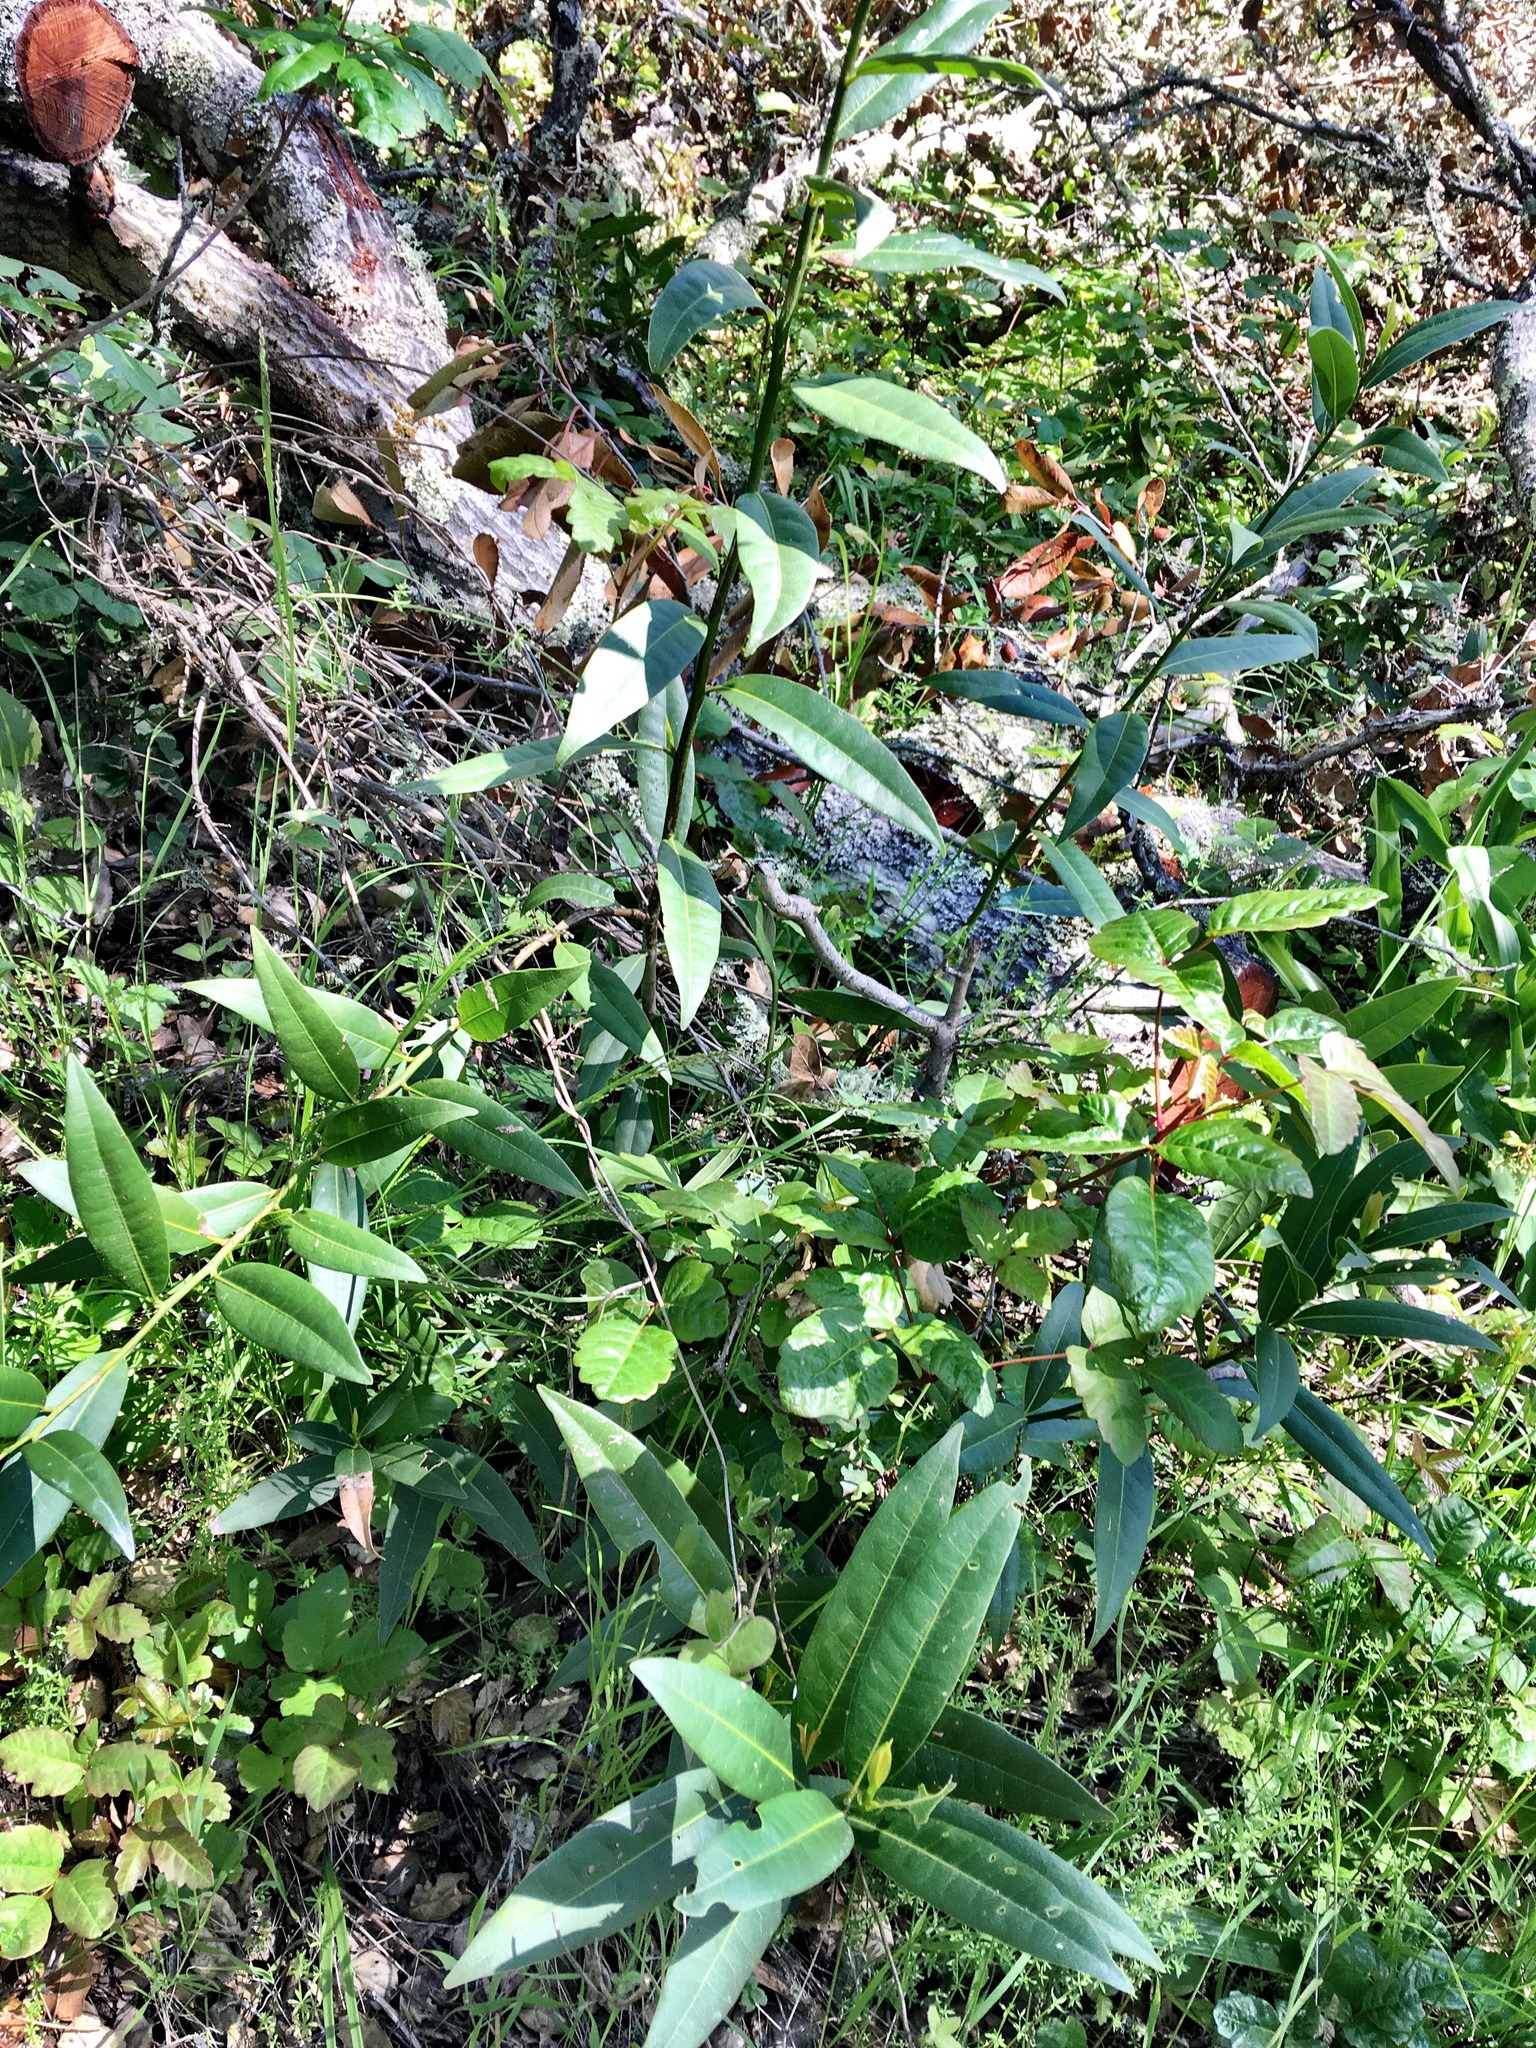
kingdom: Plantae
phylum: Tracheophyta
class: Magnoliopsida
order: Laurales
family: Lauraceae
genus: Umbellularia
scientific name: Umbellularia californica
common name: California bay
